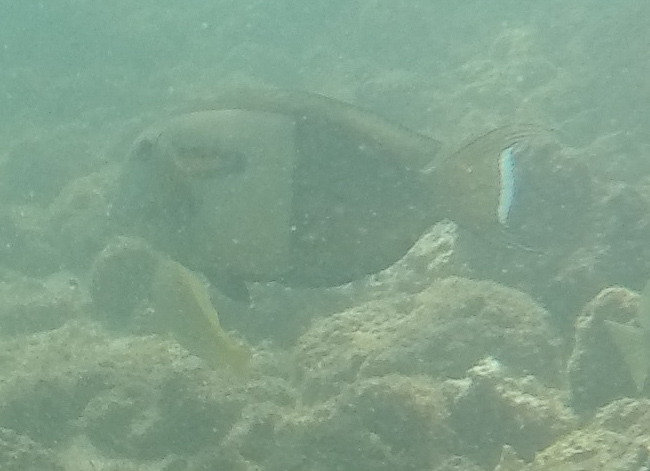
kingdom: Animalia
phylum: Chordata
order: Perciformes
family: Acanthuridae
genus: Acanthurus
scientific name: Acanthurus olivaceus
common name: Gendarme fish
